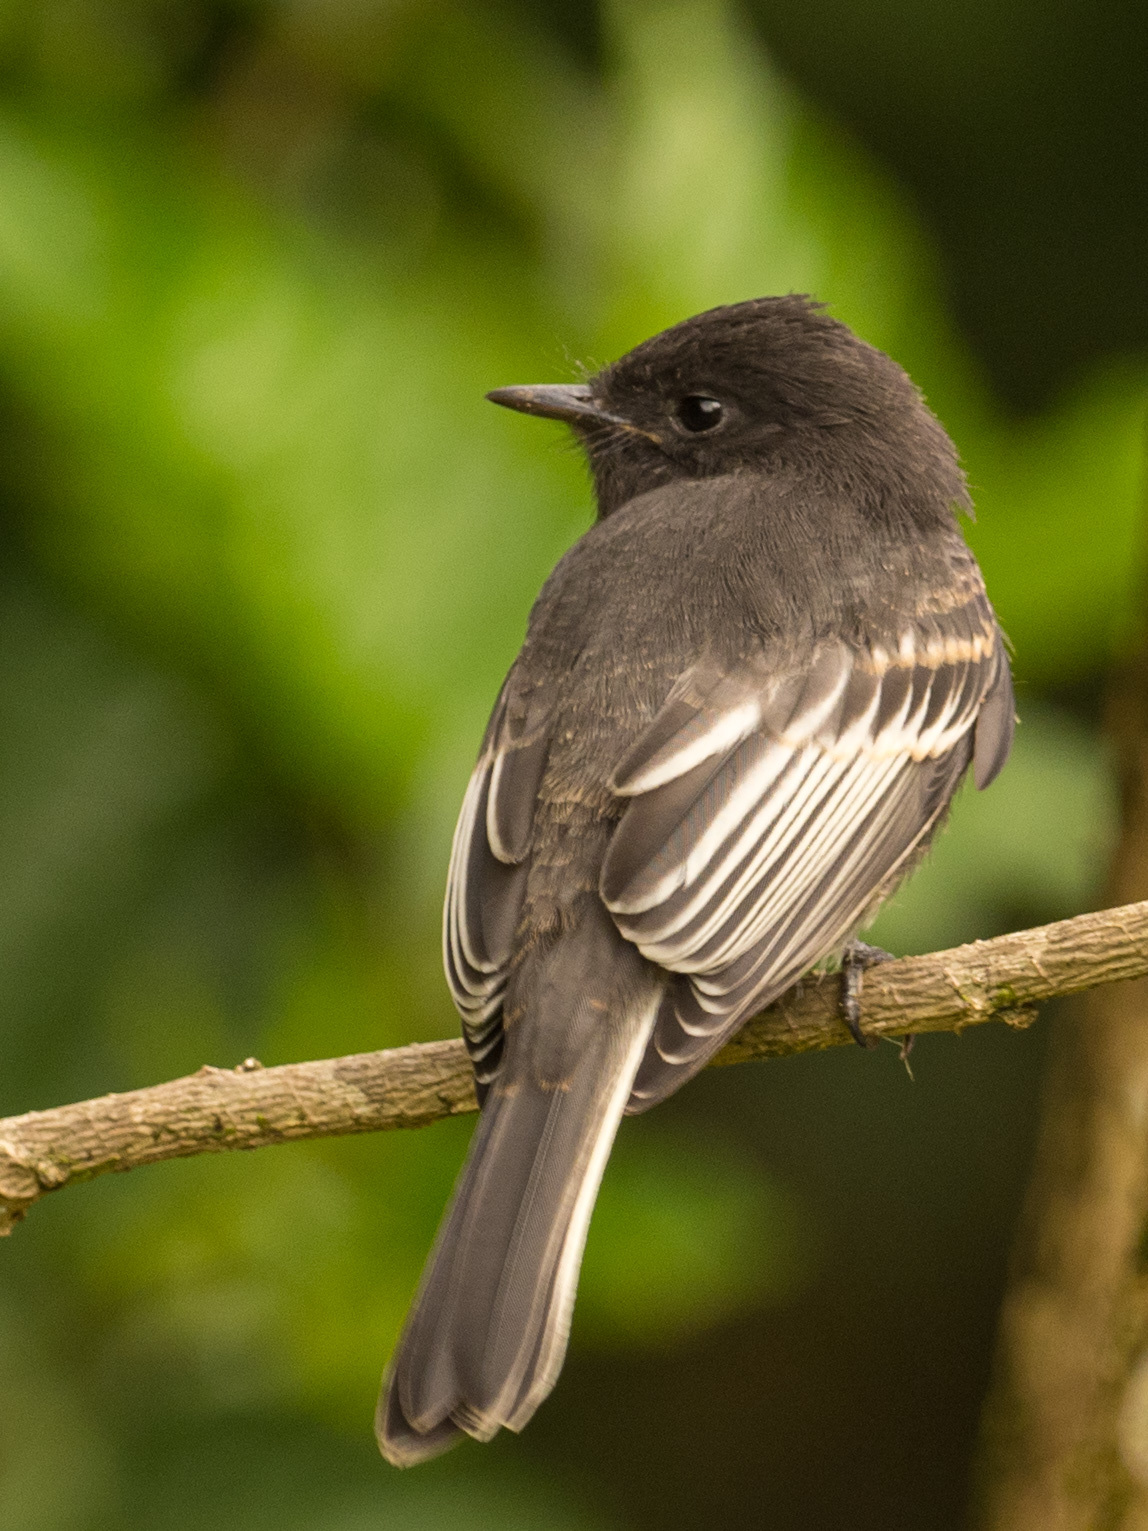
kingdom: Animalia
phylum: Chordata
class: Aves
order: Passeriformes
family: Tyrannidae
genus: Sayornis
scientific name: Sayornis nigricans
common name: Black phoebe
